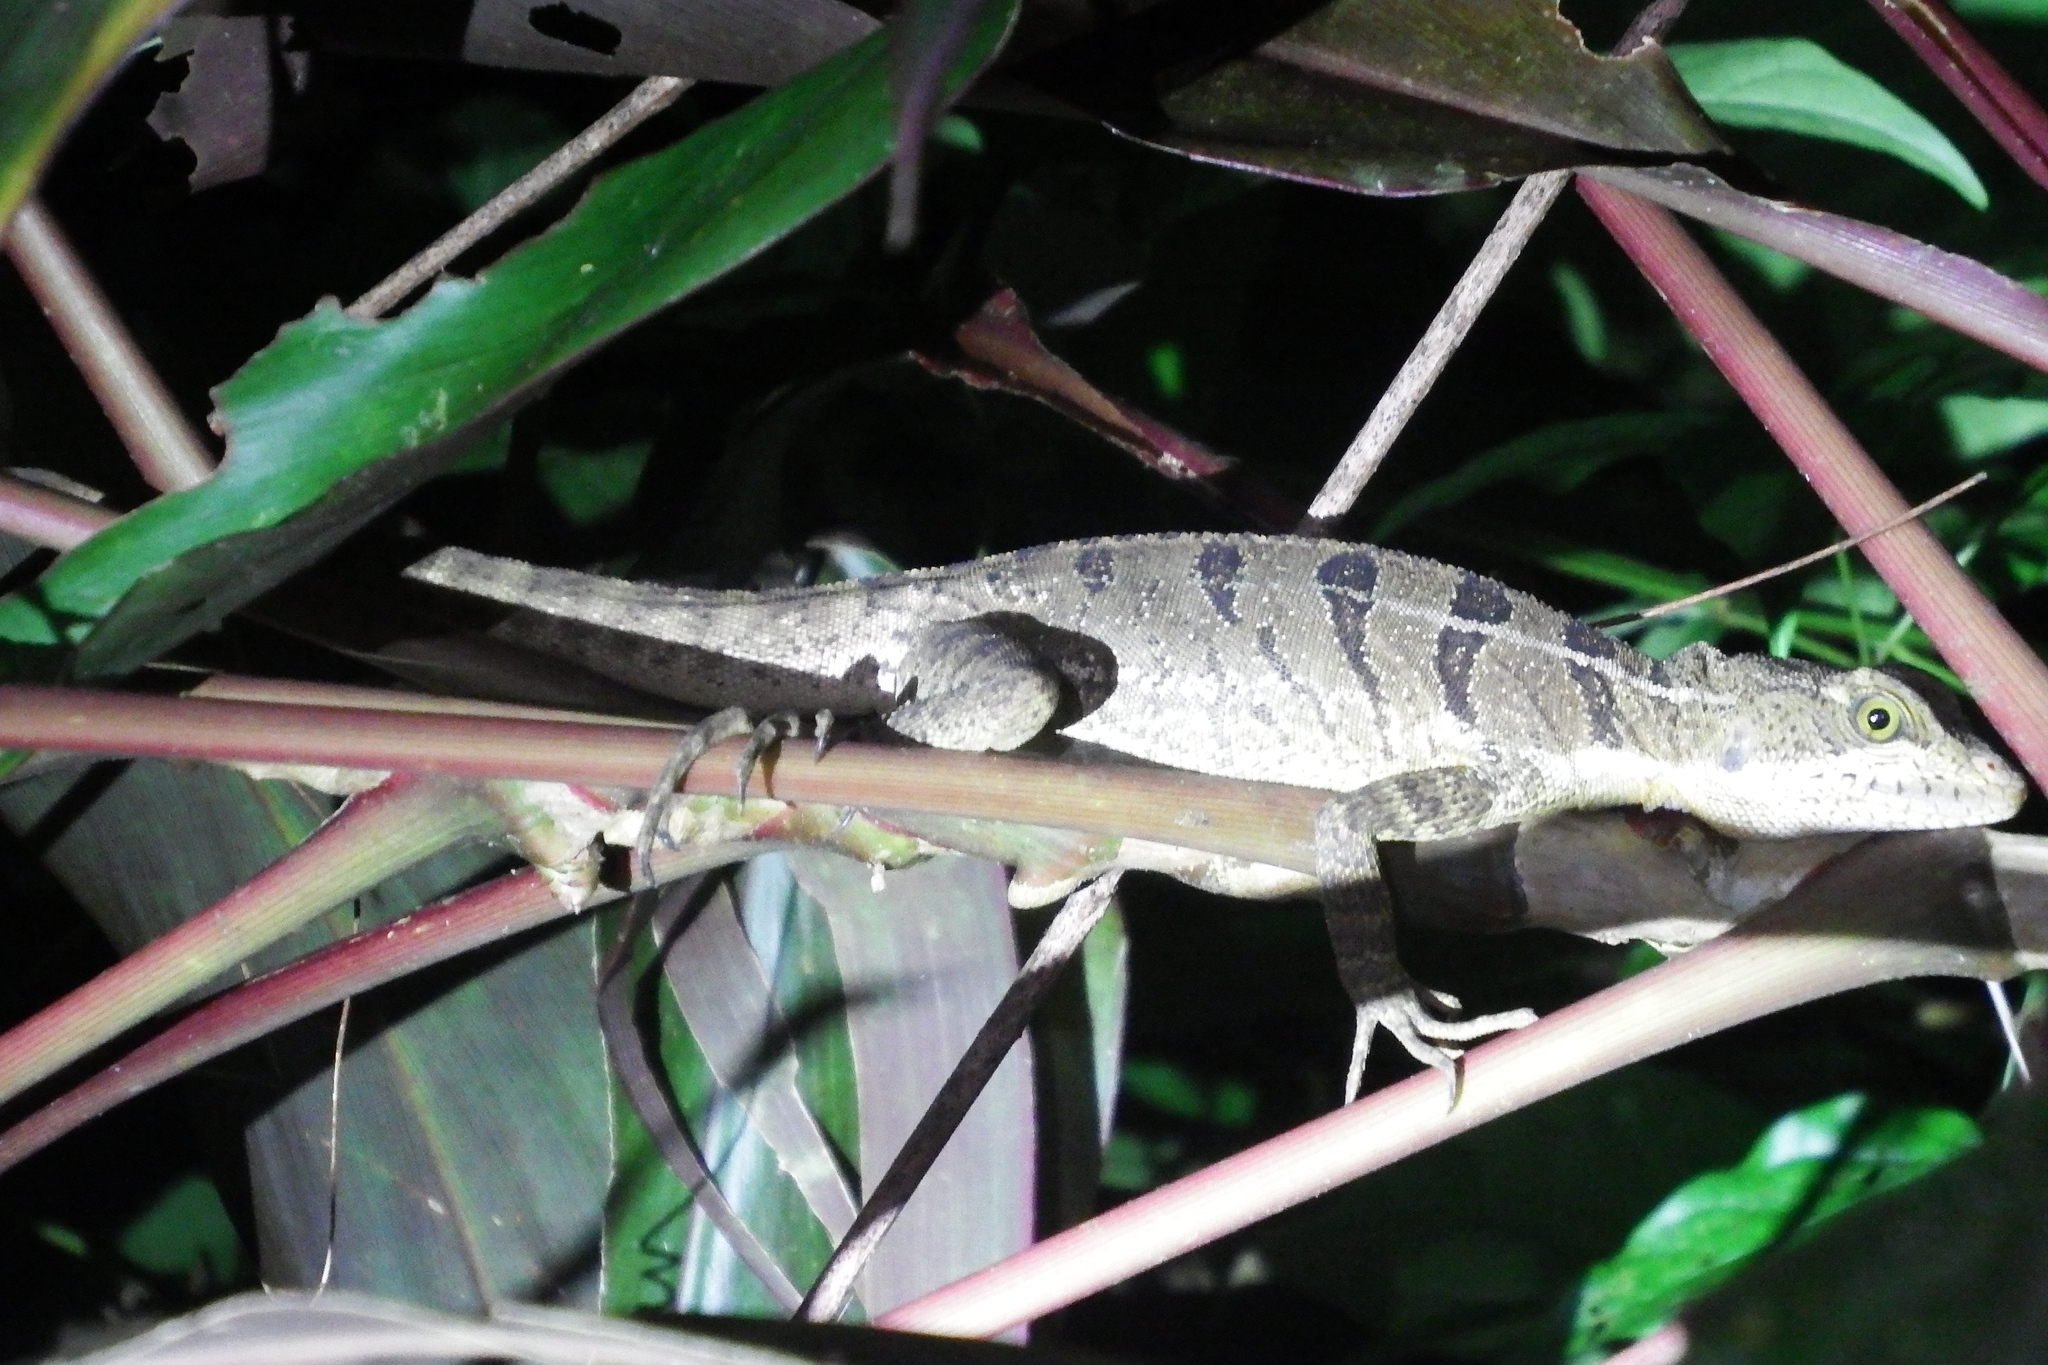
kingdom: Animalia
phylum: Chordata
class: Squamata
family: Corytophanidae
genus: Basiliscus
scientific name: Basiliscus basiliscus
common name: Common basilisk
